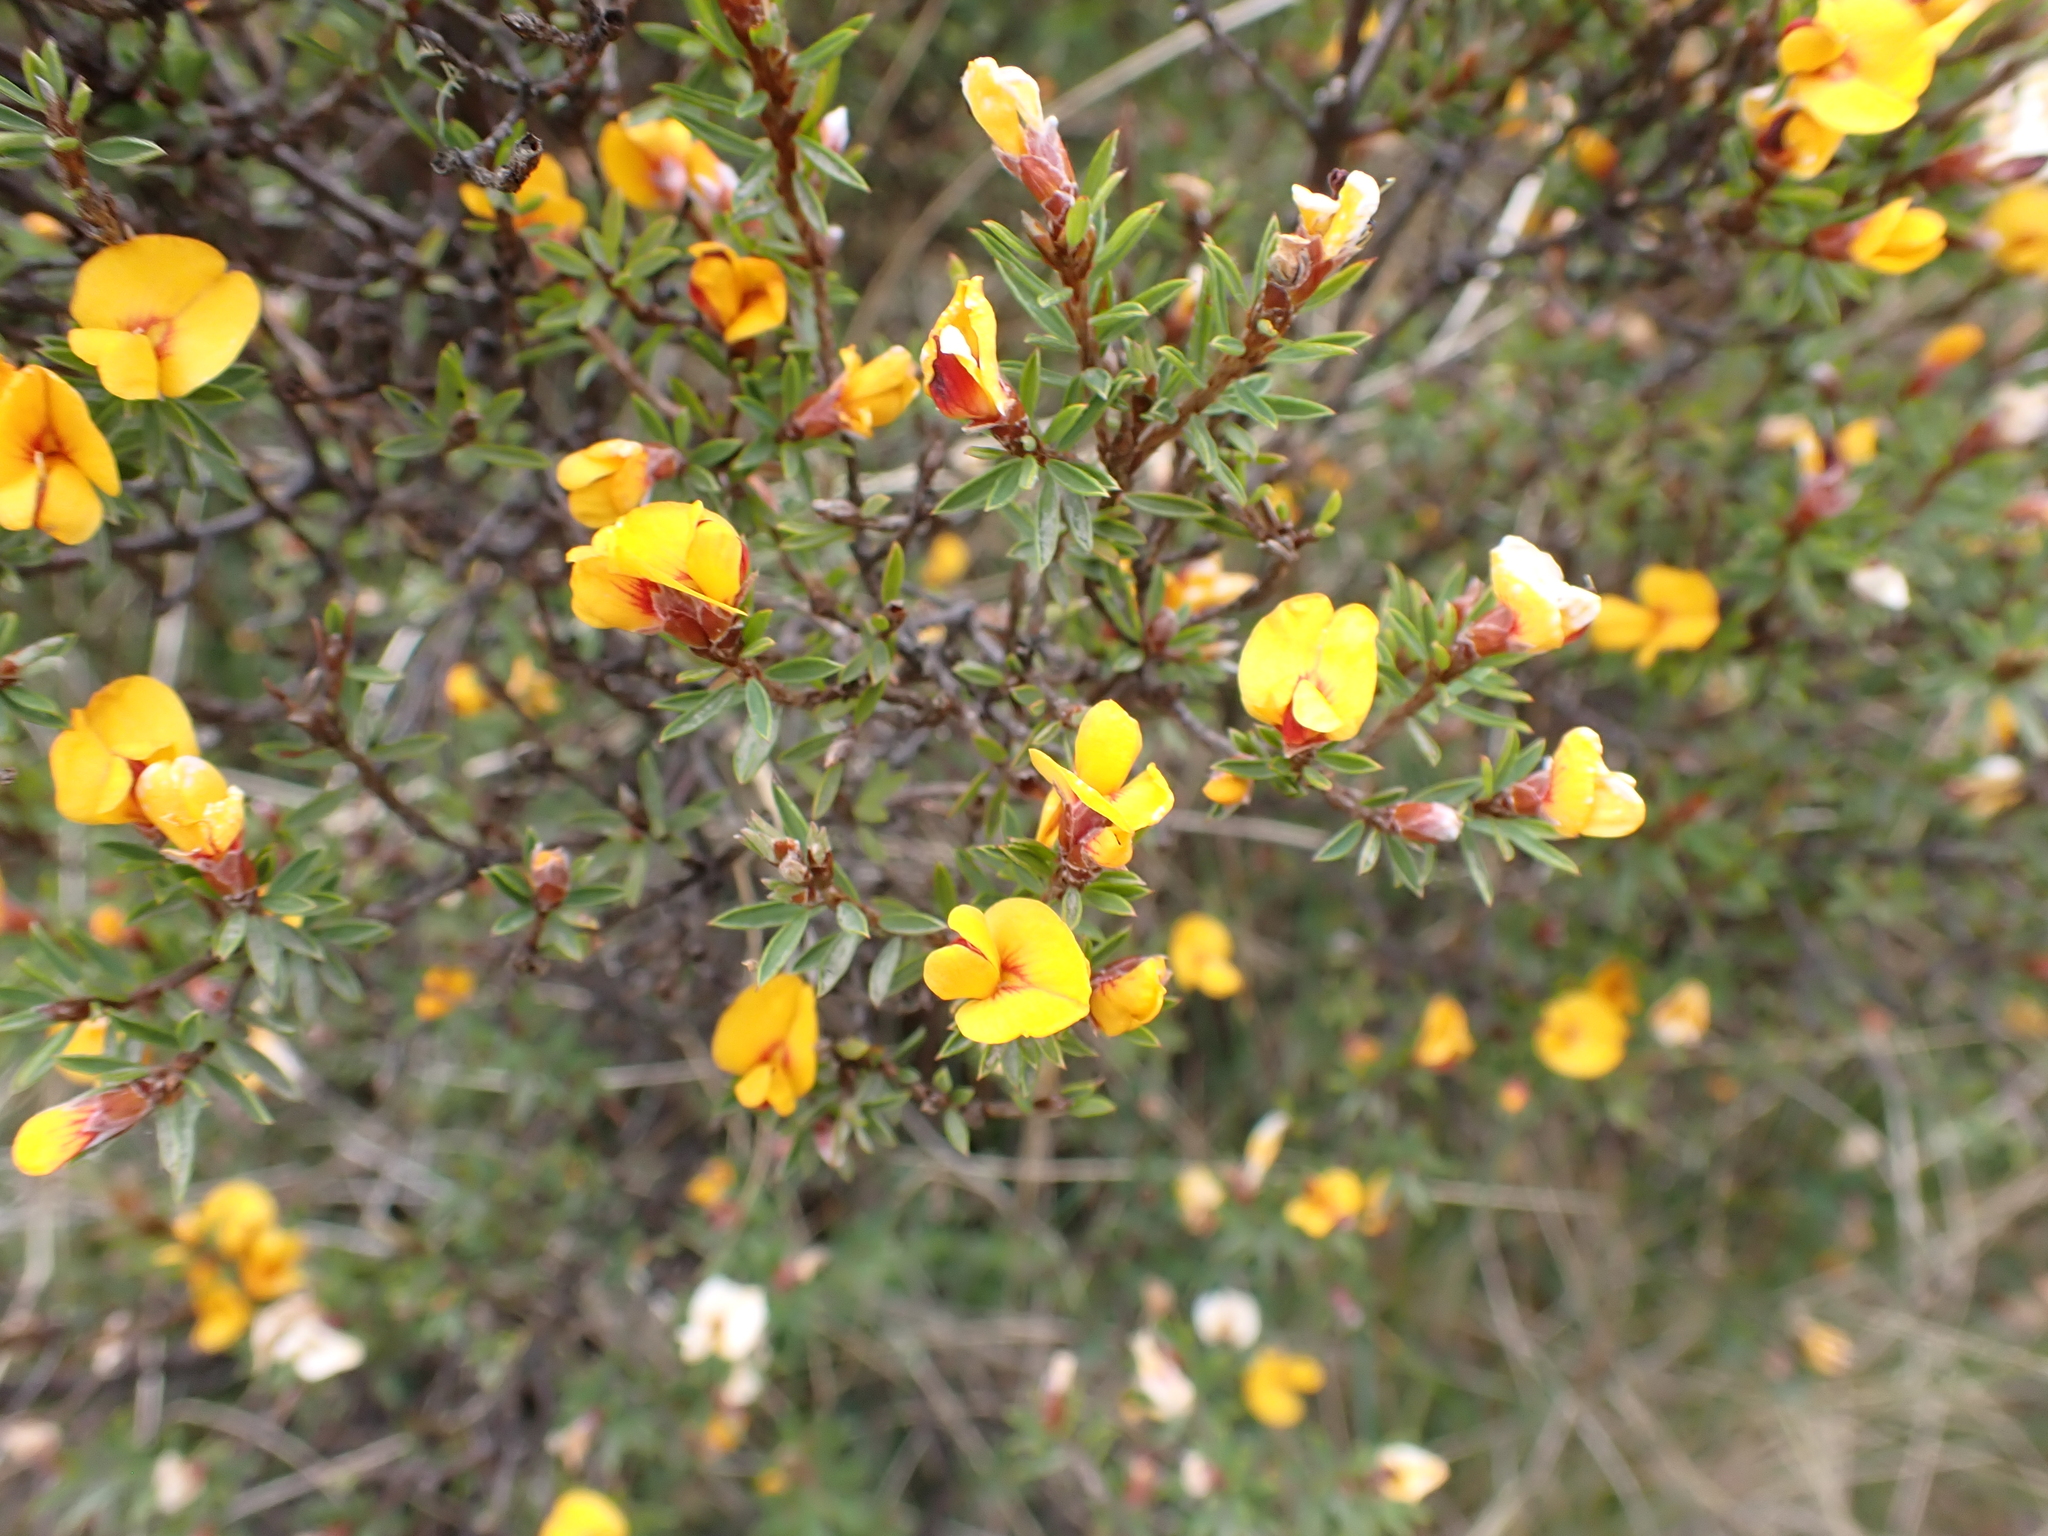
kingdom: Plantae
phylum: Tracheophyta
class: Magnoliopsida
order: Fabales
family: Fabaceae
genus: Pultenaea
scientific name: Pultenaea muelleri
